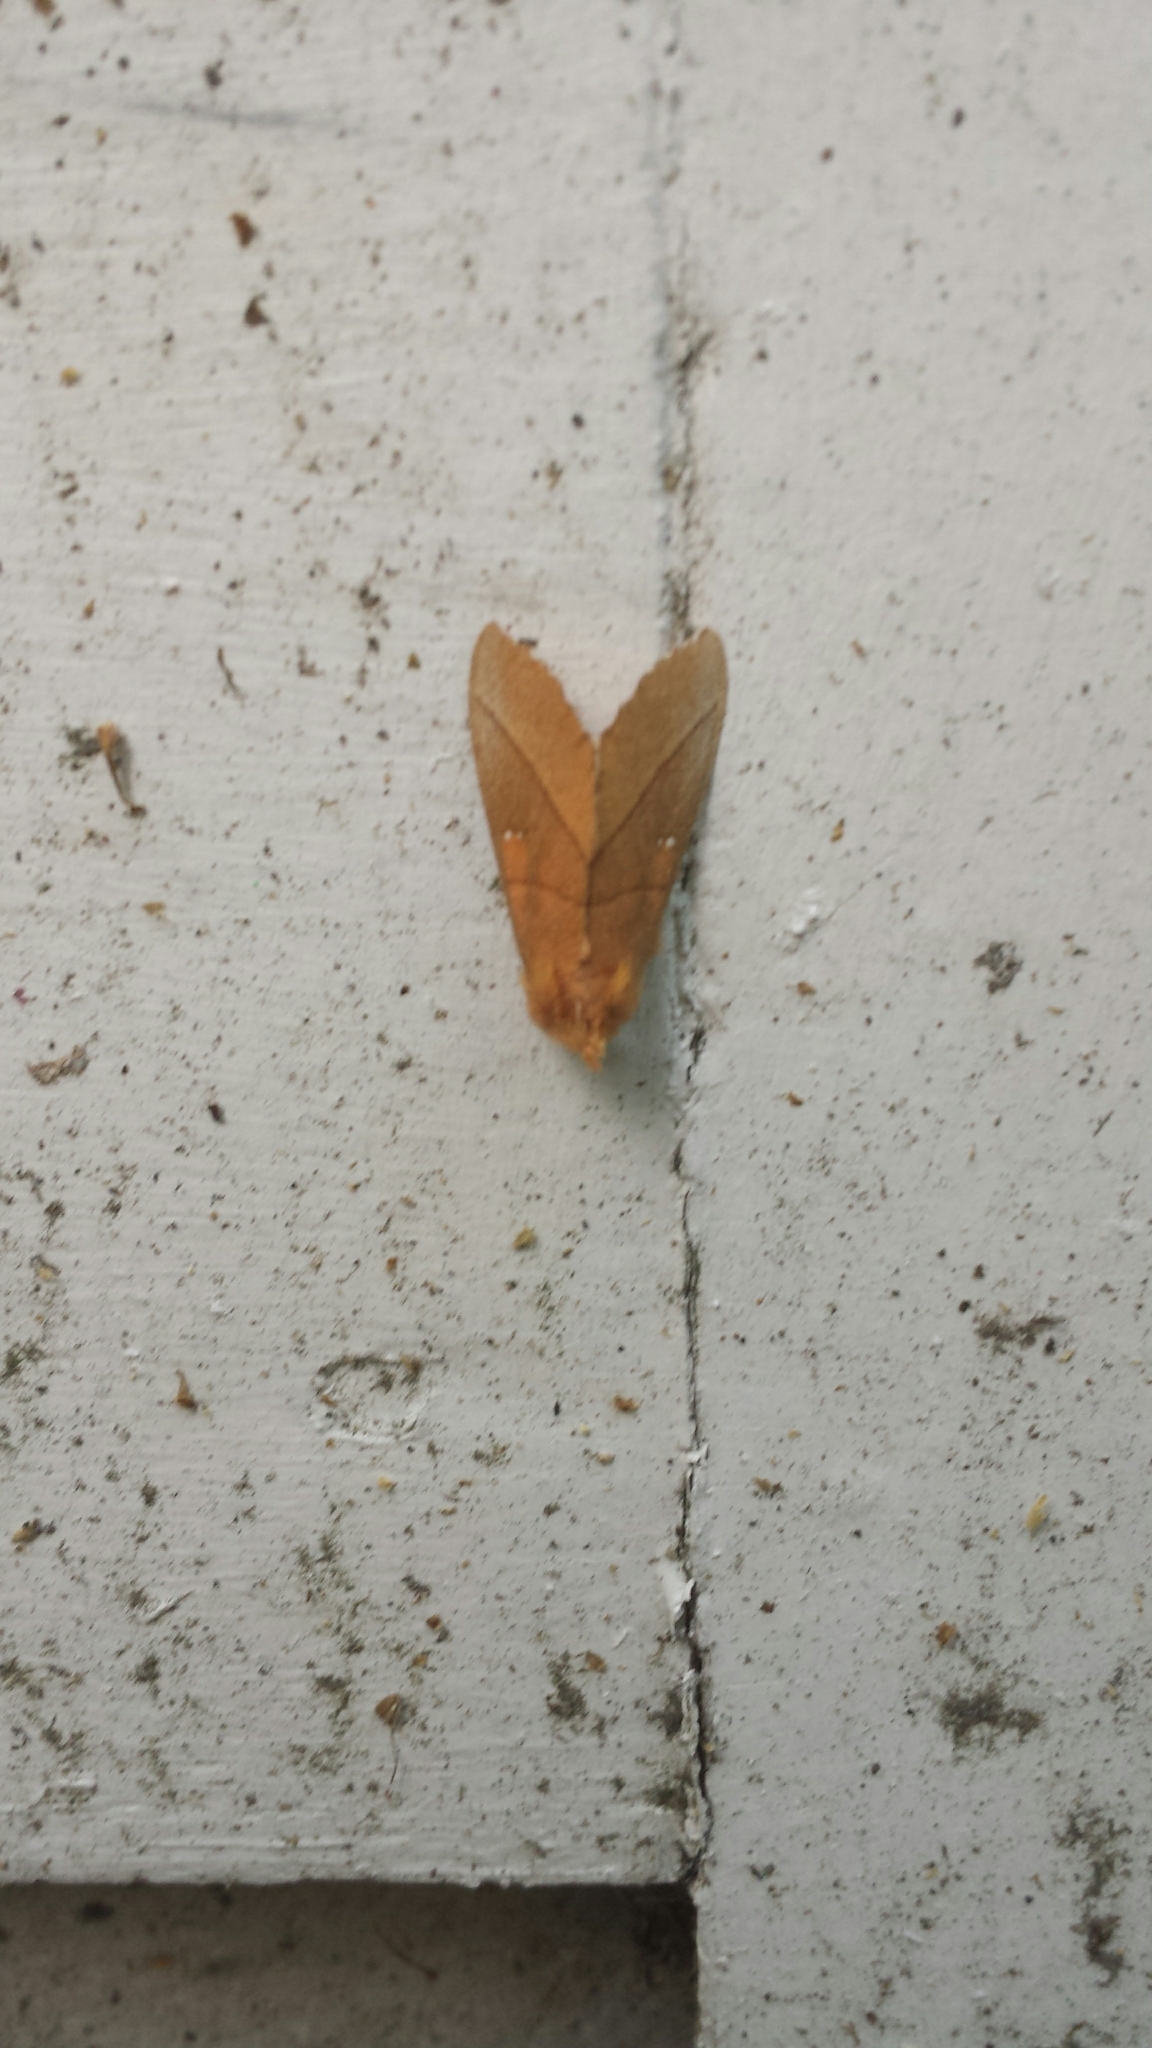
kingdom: Animalia
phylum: Arthropoda
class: Insecta
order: Lepidoptera
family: Notodontidae
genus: Nadata
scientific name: Nadata gibbosa
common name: White-dotted prominent
